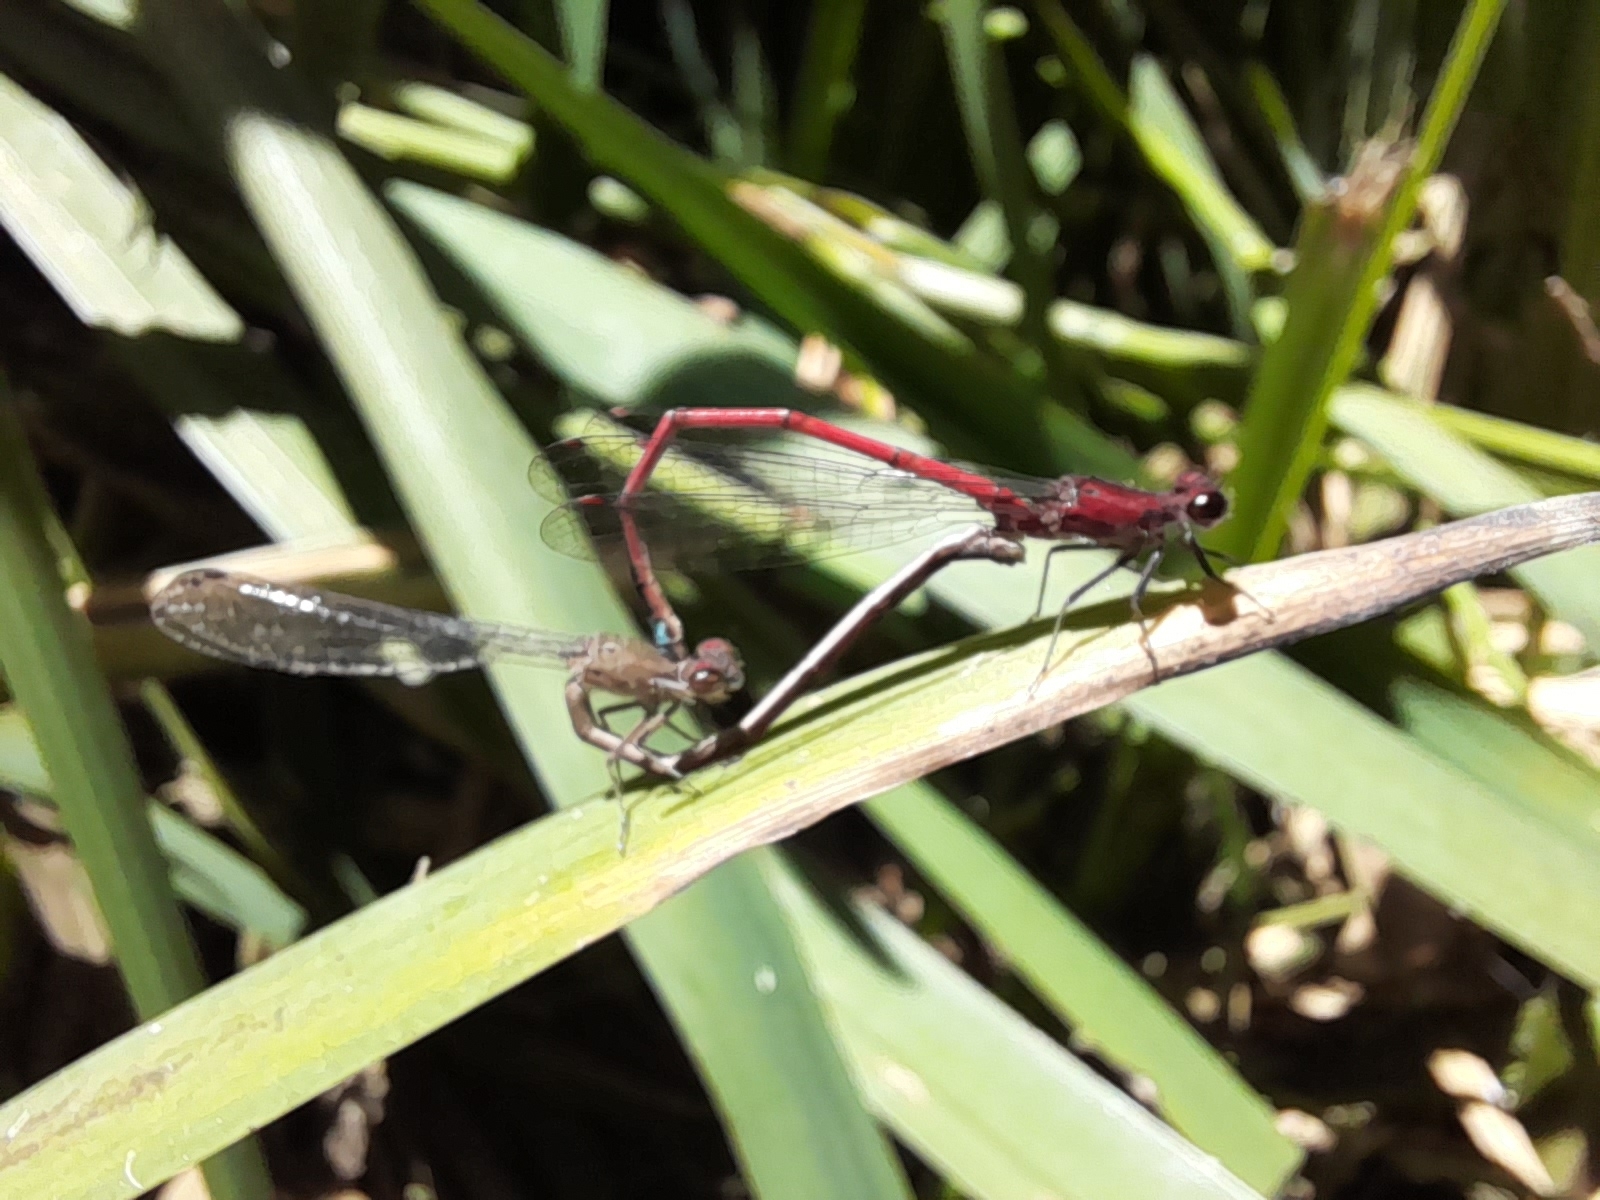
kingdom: Animalia
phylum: Arthropoda
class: Insecta
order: Odonata
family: Coenagrionidae
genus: Oxyagrion
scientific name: Oxyagrion terminale
